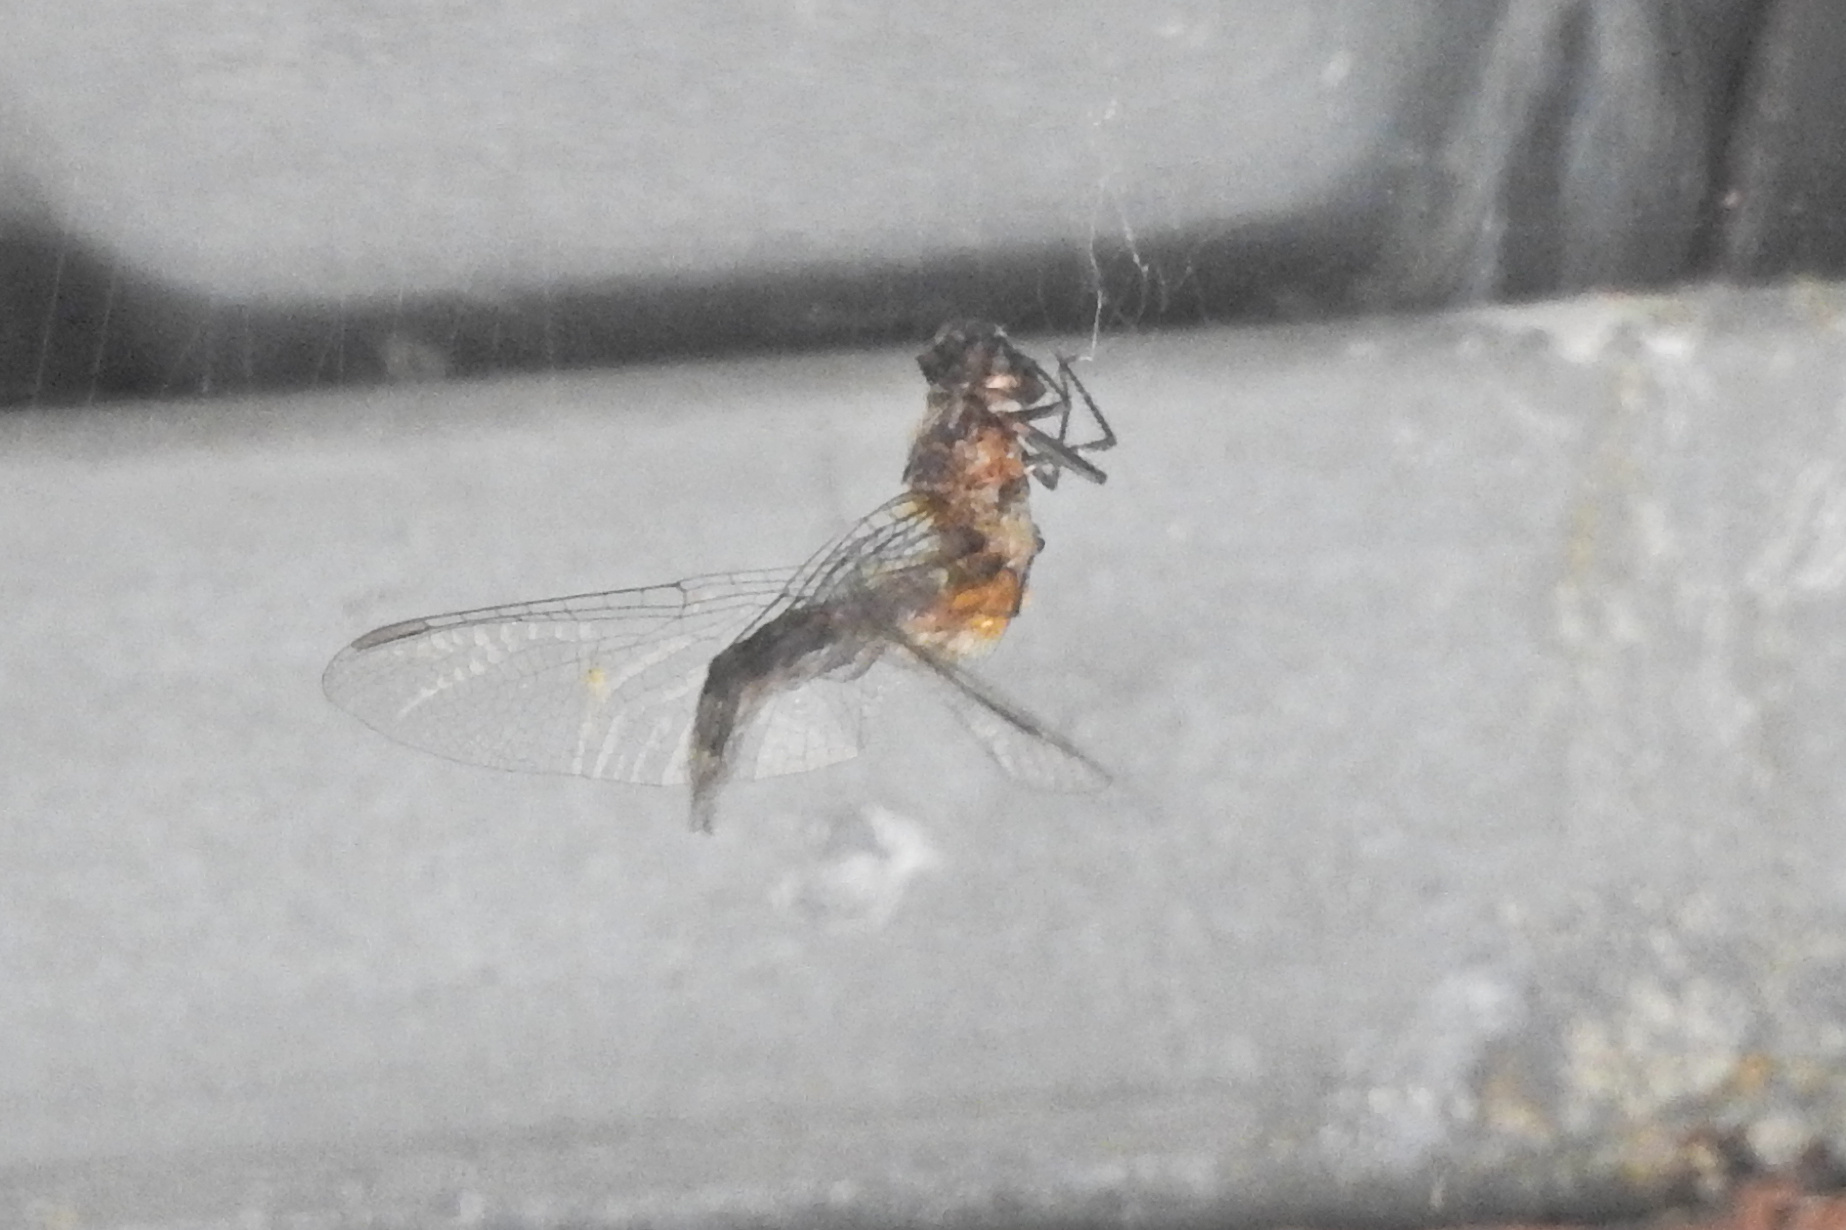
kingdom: Animalia
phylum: Arthropoda
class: Insecta
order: Odonata
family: Libellulidae
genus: Pachydiplax
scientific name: Pachydiplax longipennis
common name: Blue dasher
